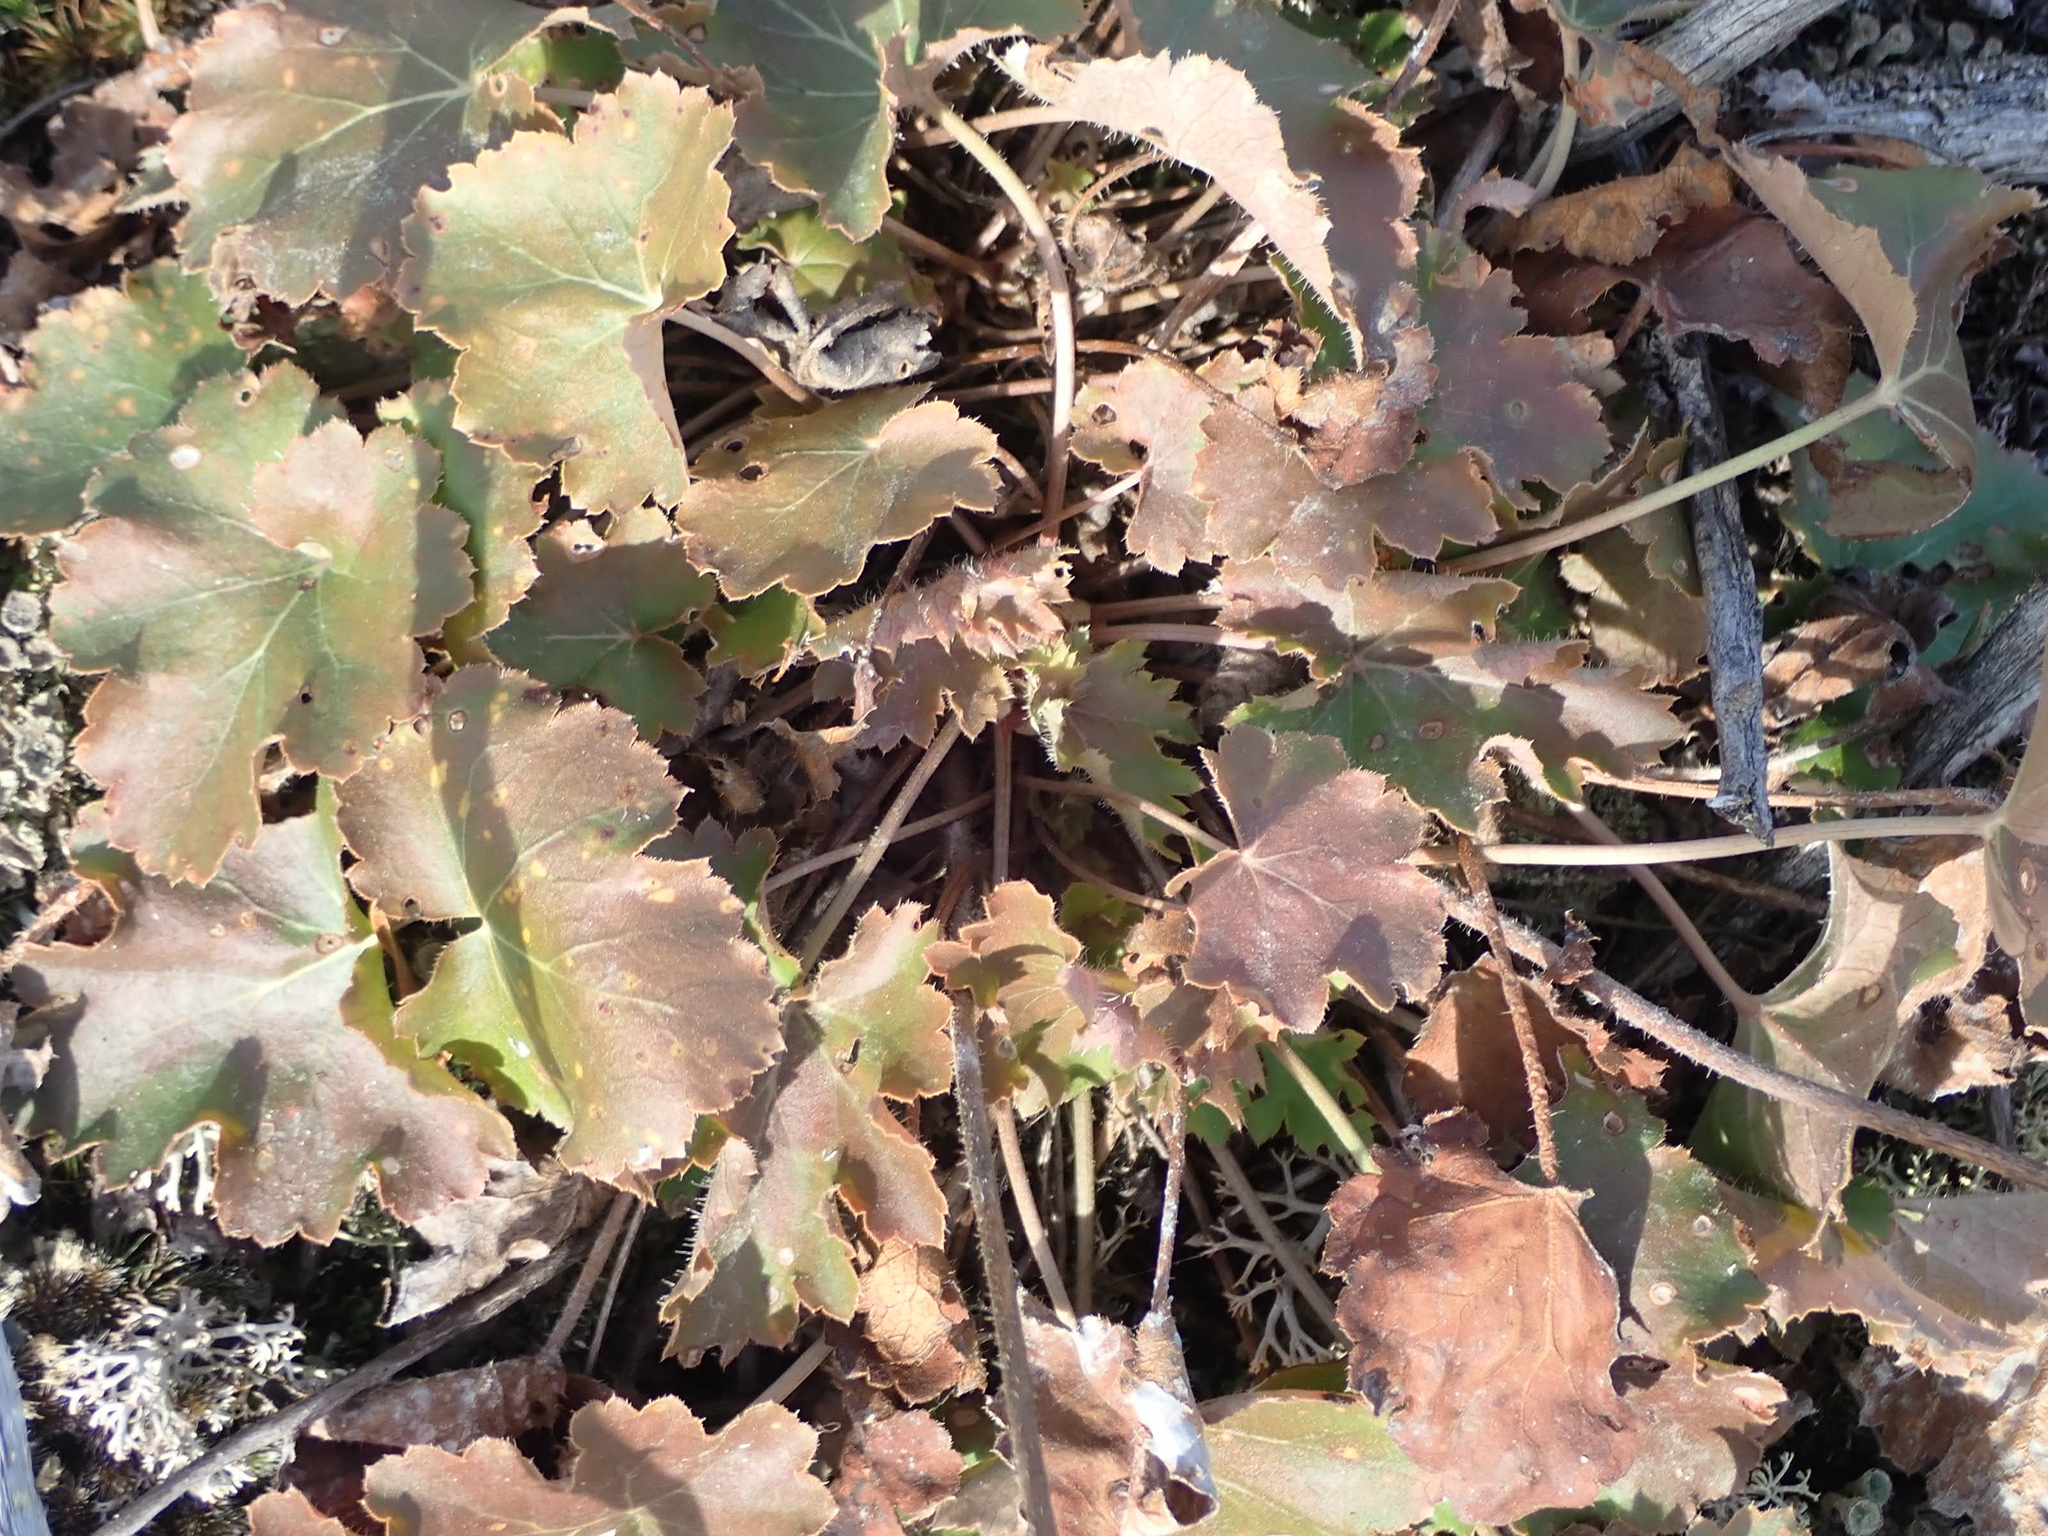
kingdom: Plantae
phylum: Tracheophyta
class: Magnoliopsida
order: Saxifragales
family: Saxifragaceae
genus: Heuchera
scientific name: Heuchera richardsonii
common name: Richardson's alumroot
